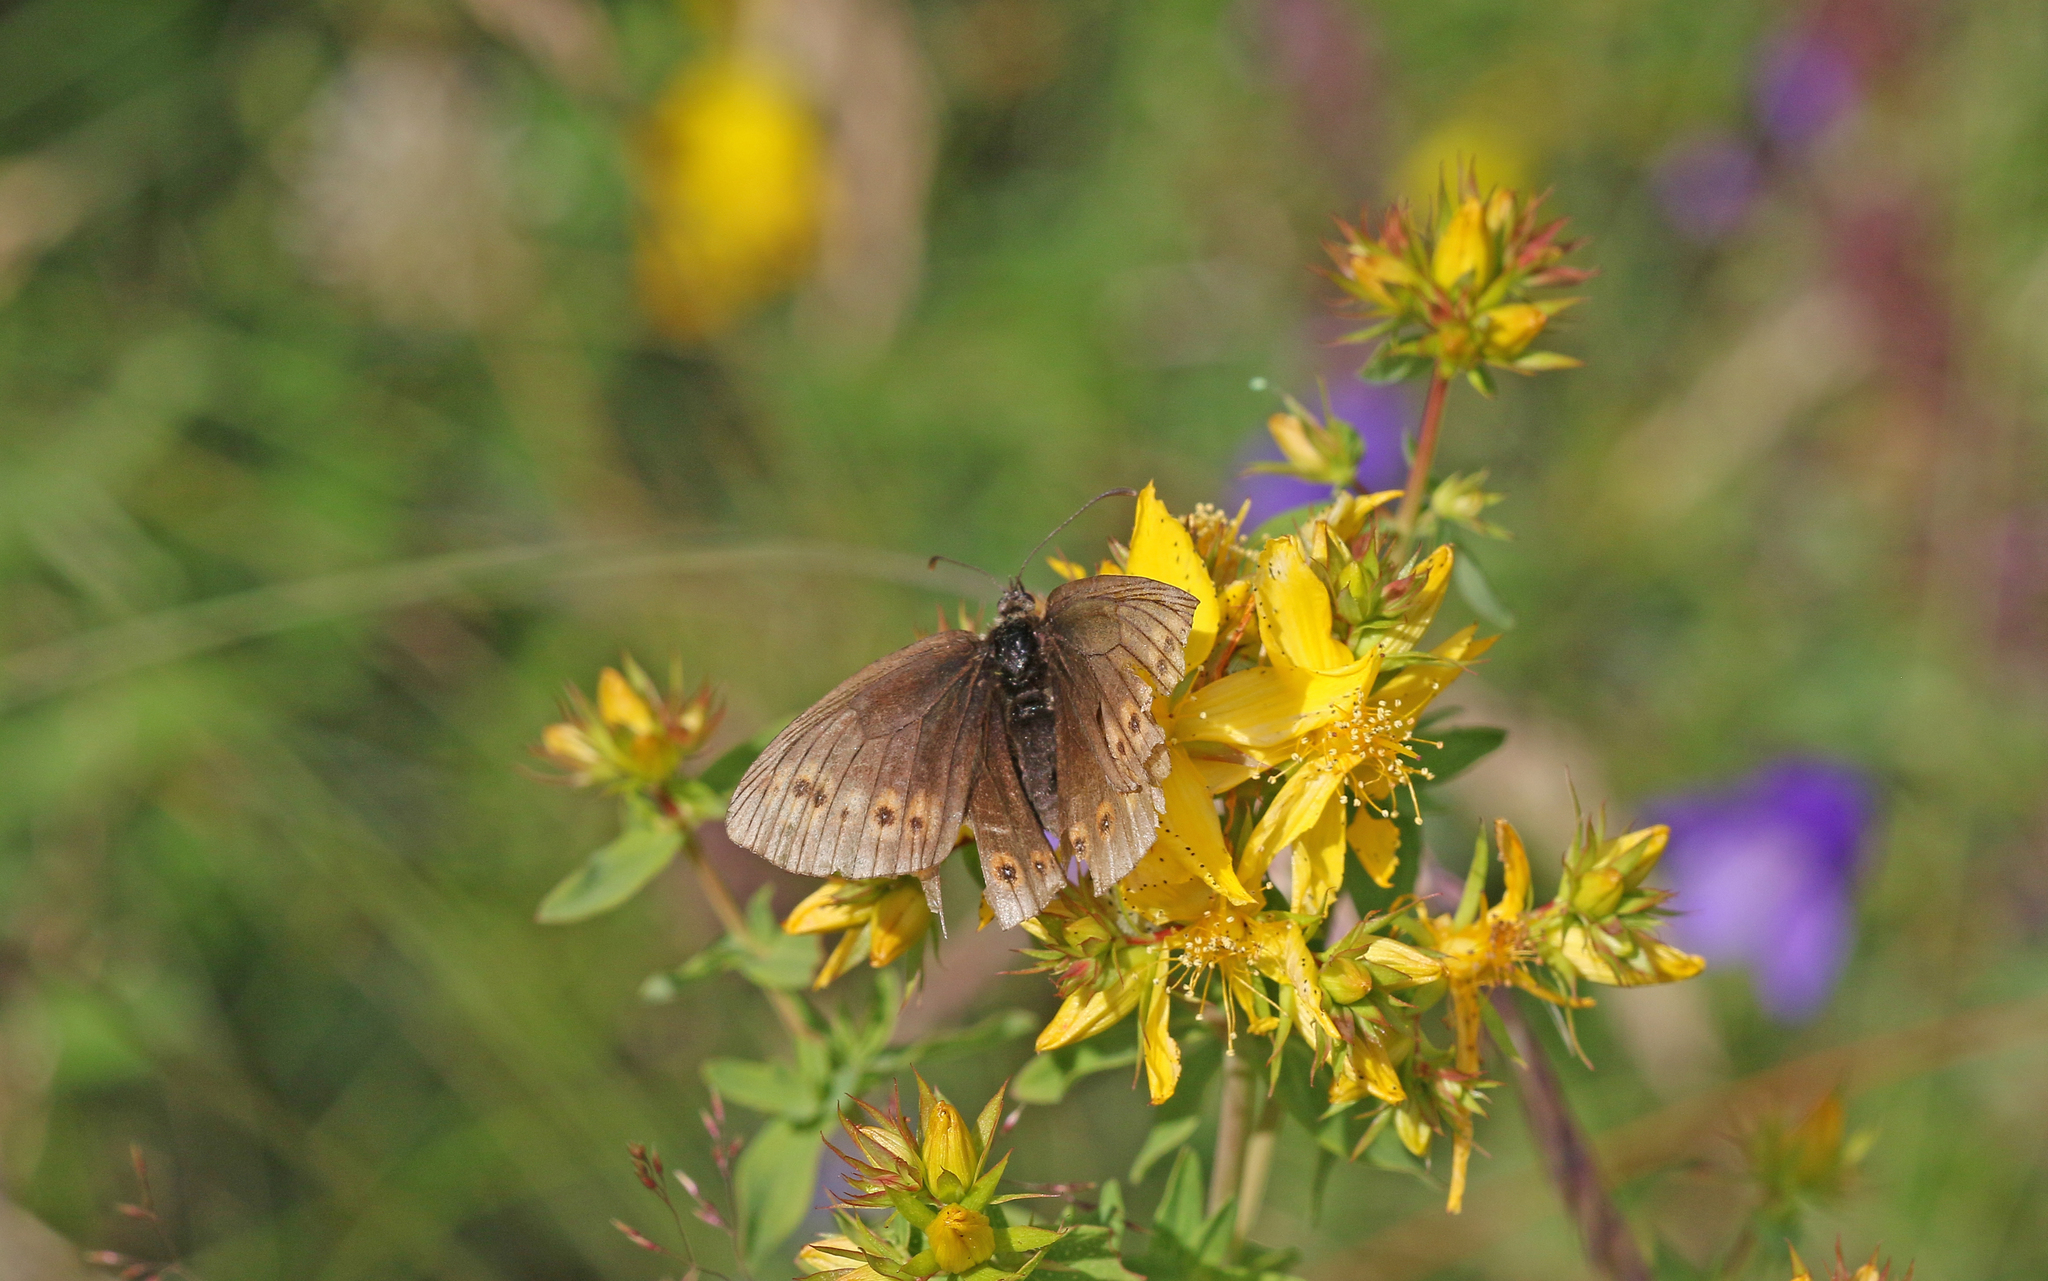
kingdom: Animalia
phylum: Arthropoda
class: Insecta
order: Lepidoptera
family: Nymphalidae
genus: Erebia
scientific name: Erebia alberganus
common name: Almond-eyed ringlet
